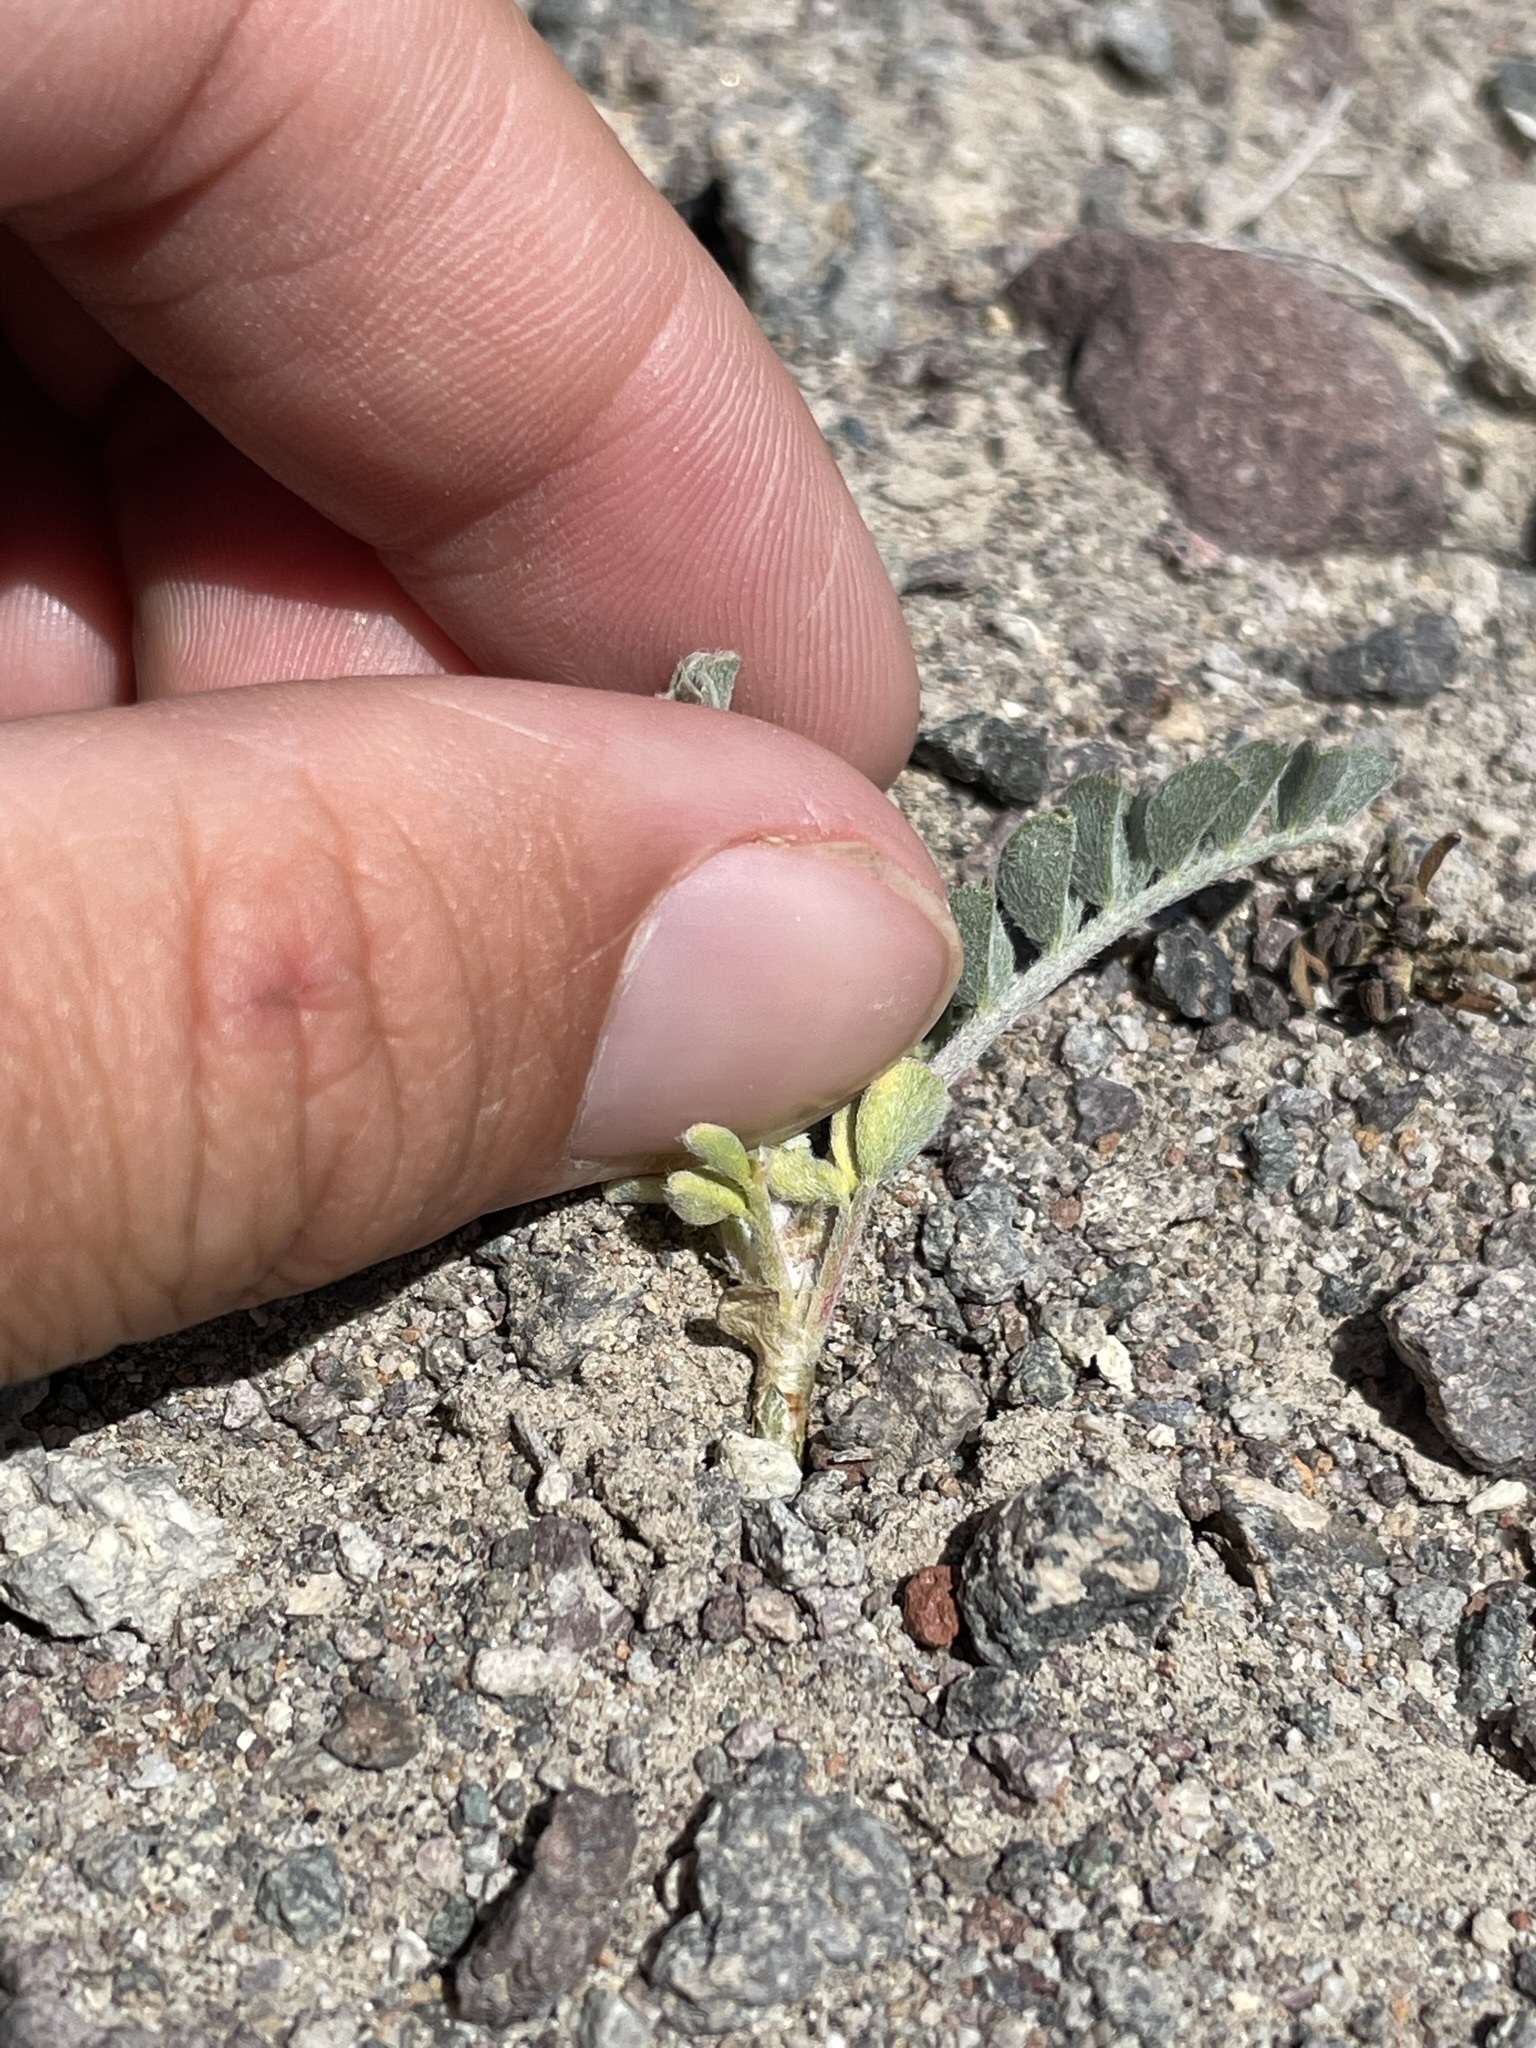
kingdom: Plantae
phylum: Tracheophyta
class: Magnoliopsida
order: Fabales
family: Fabaceae
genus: Astragalus
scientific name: Astragalus sabulonum
